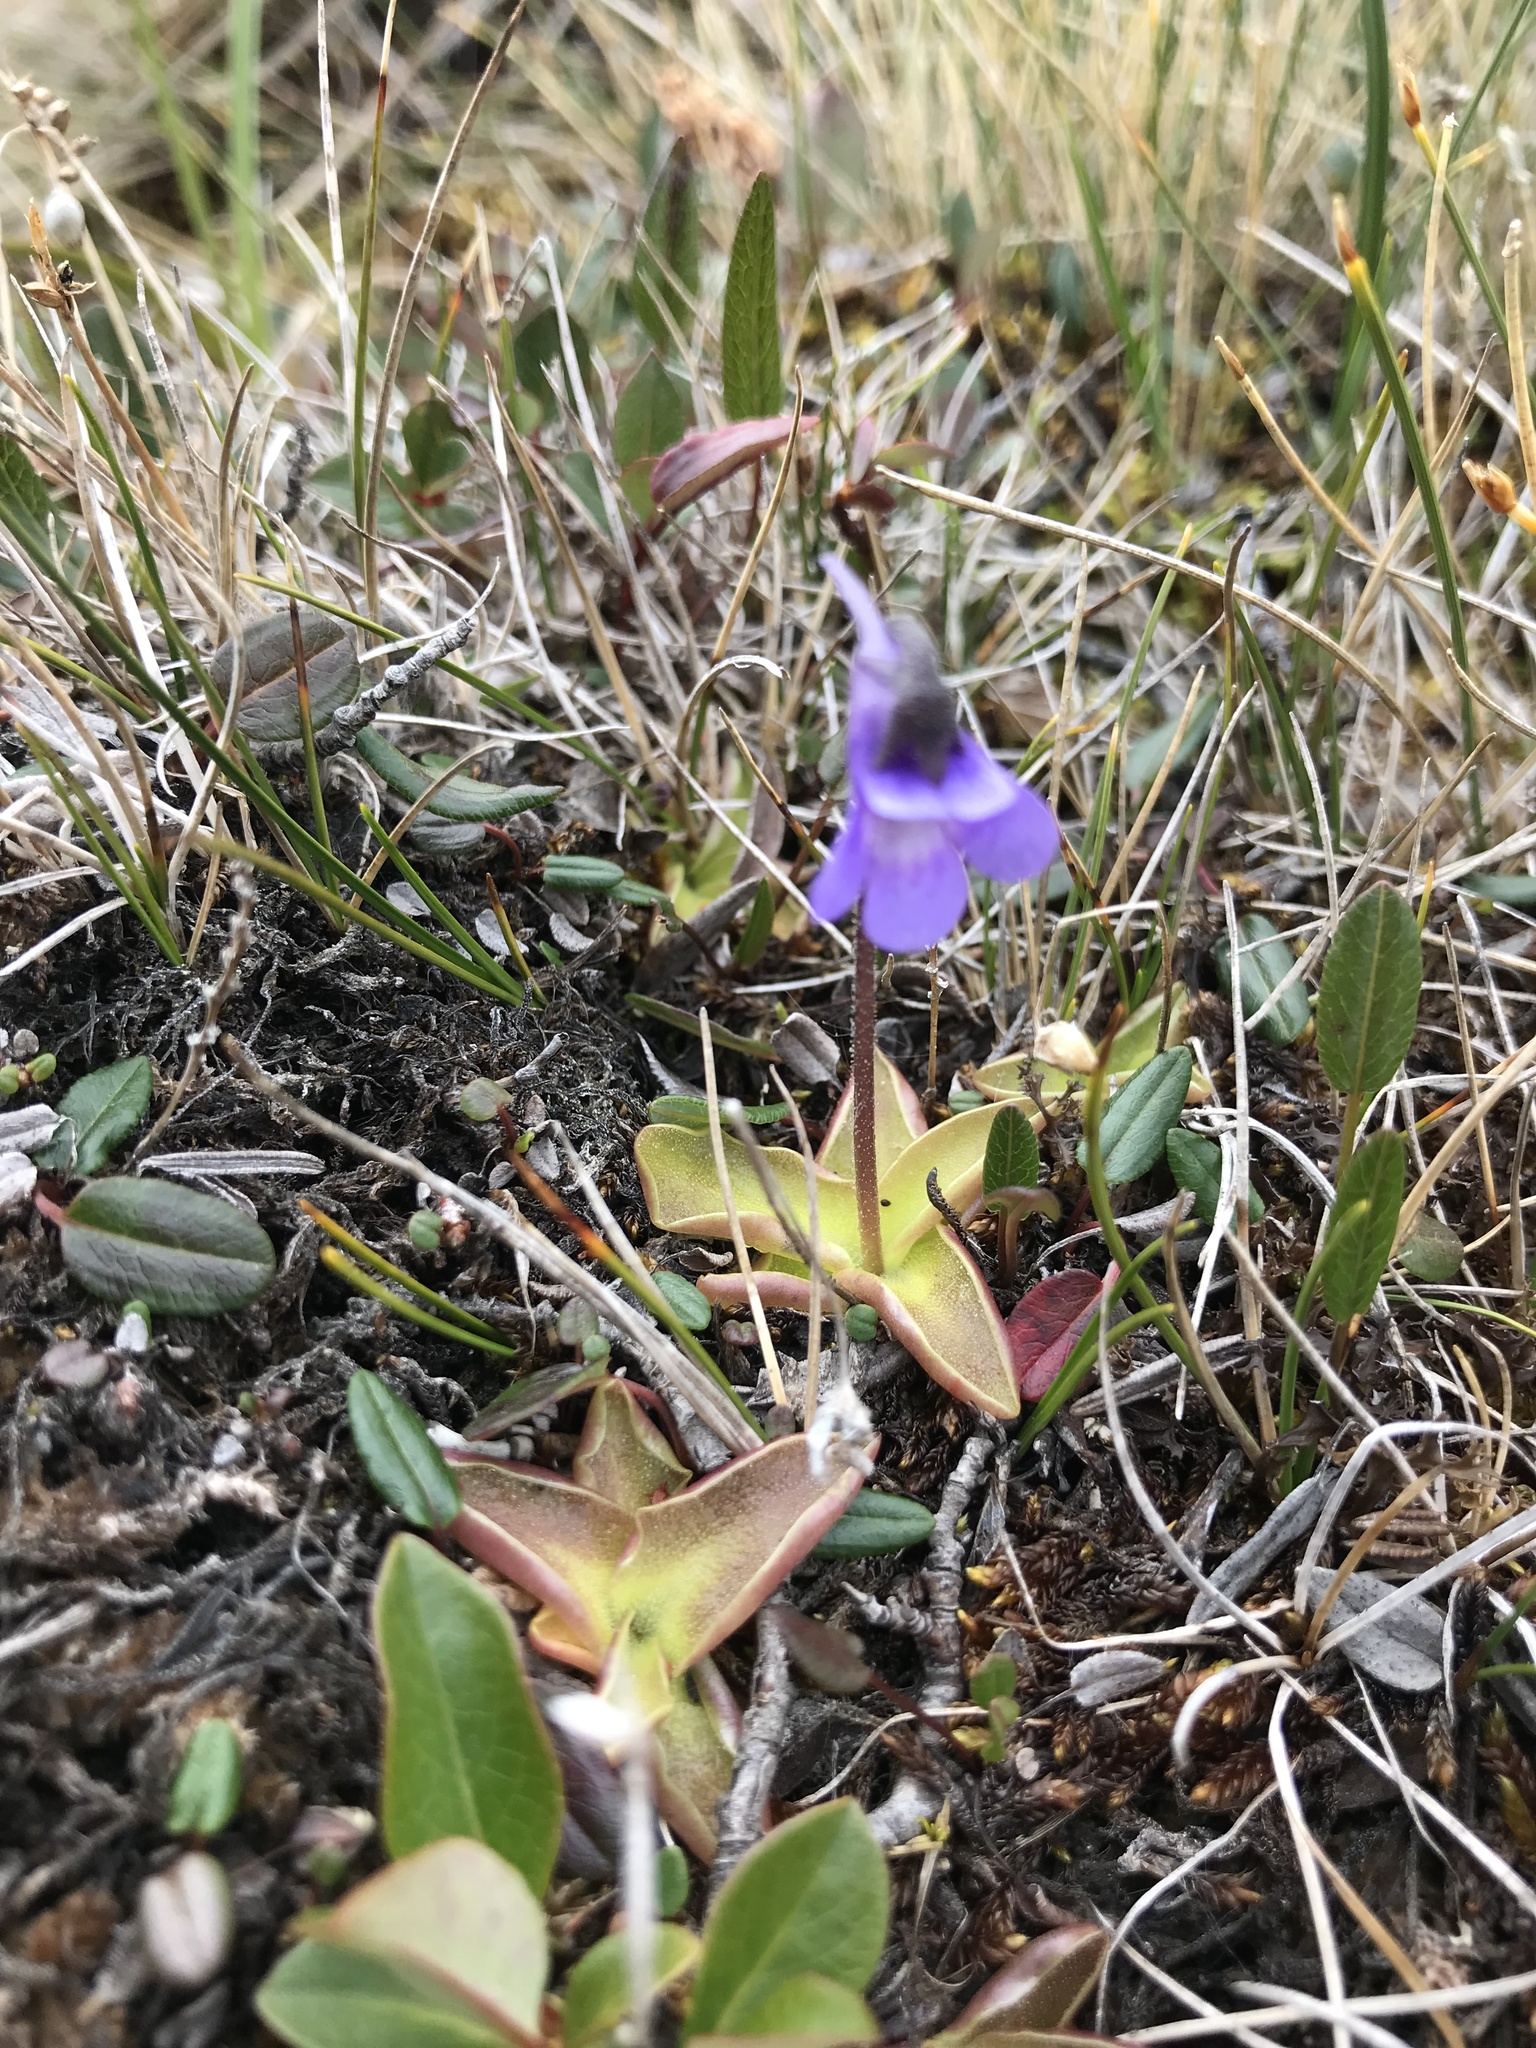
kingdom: Plantae
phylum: Tracheophyta
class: Magnoliopsida
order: Lamiales
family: Lentibulariaceae
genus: Pinguicula
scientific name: Pinguicula vulgaris
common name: Common butterwort
